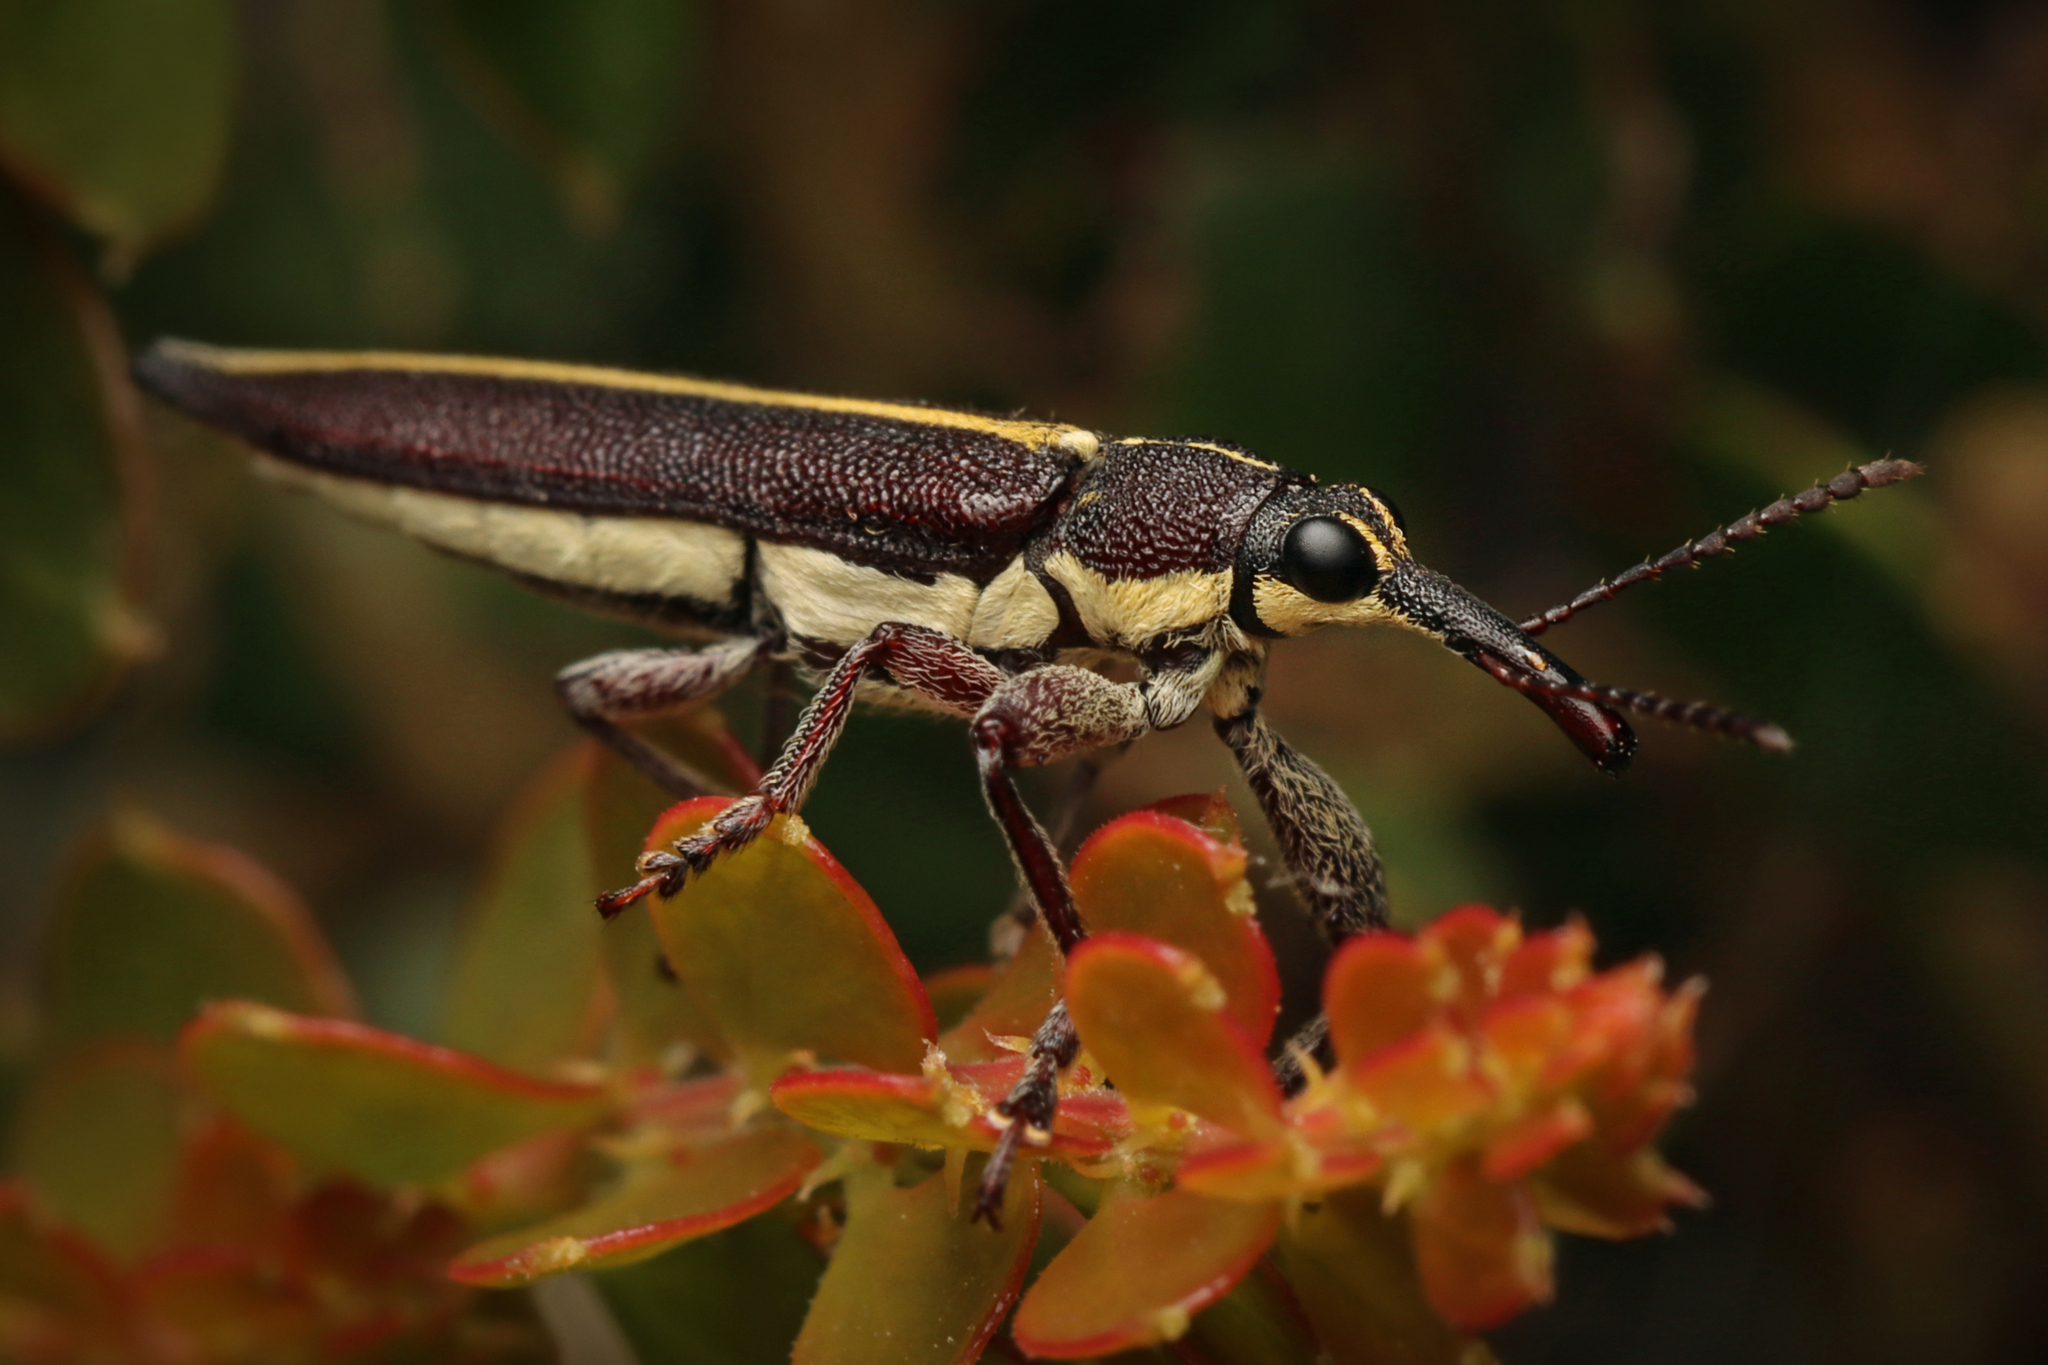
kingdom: Animalia
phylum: Arthropoda
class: Insecta
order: Coleoptera
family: Belidae
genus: Rhinotia
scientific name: Rhinotia suturalis
